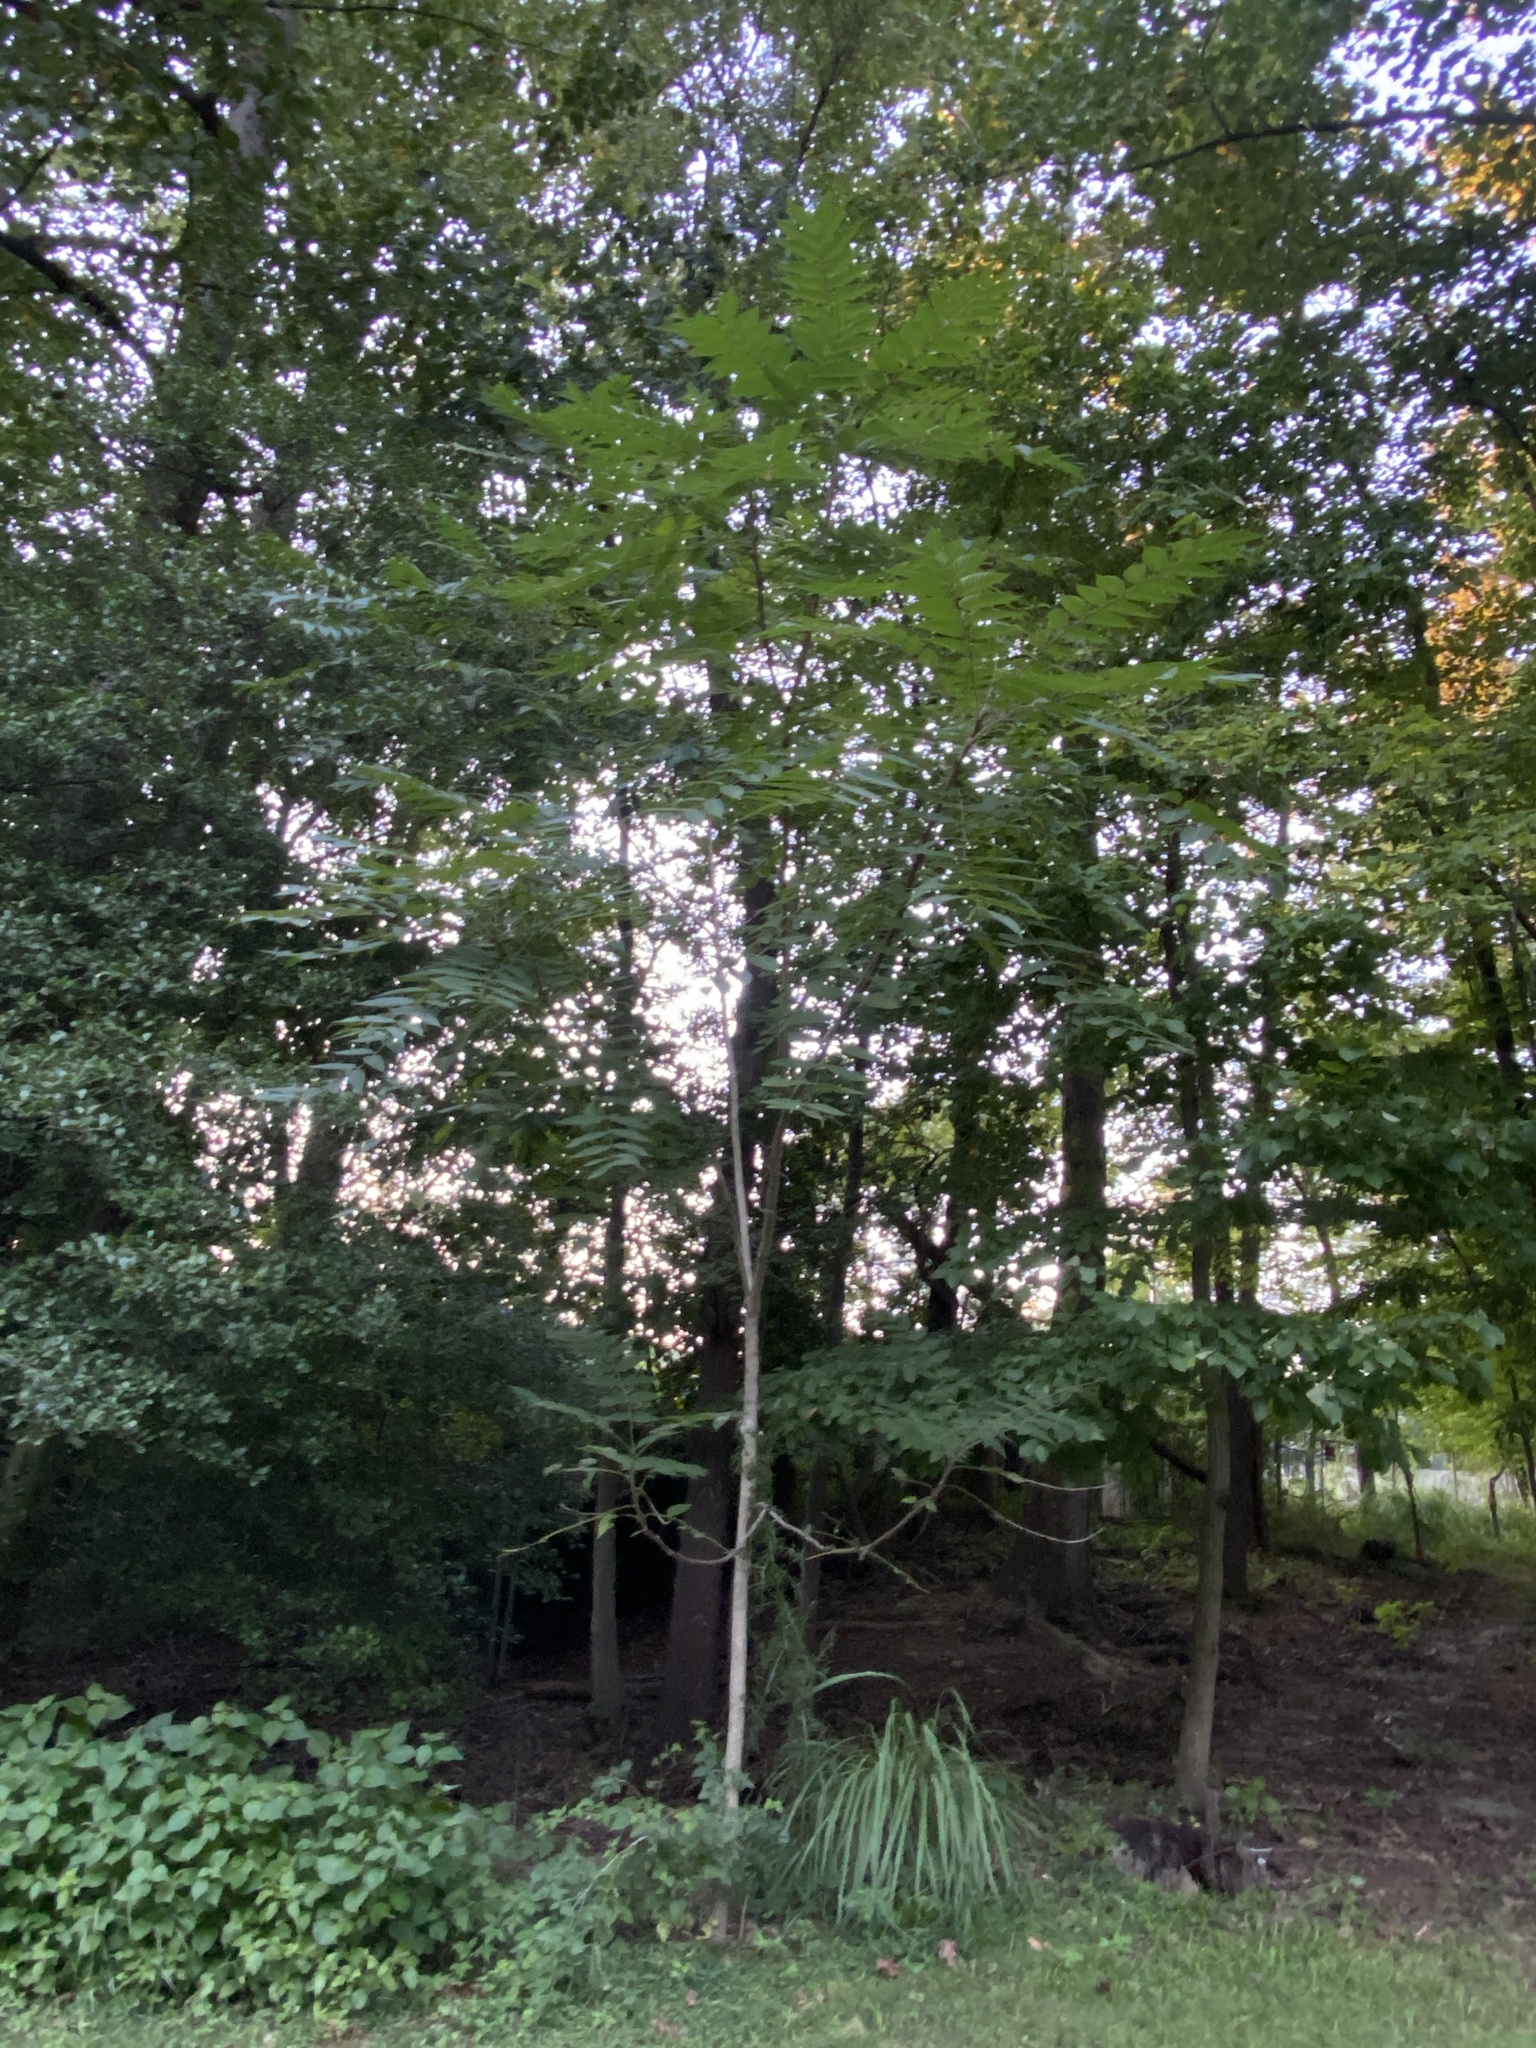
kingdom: Plantae
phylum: Tracheophyta
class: Magnoliopsida
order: Sapindales
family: Simaroubaceae
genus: Ailanthus
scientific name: Ailanthus altissima
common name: Tree-of-heaven
